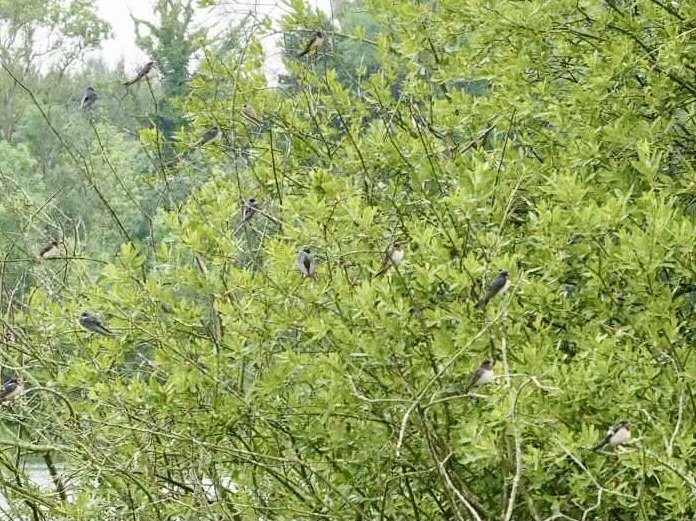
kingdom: Animalia
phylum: Chordata
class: Aves
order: Passeriformes
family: Hirundinidae
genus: Hirundo
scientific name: Hirundo rustica
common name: Barn swallow
